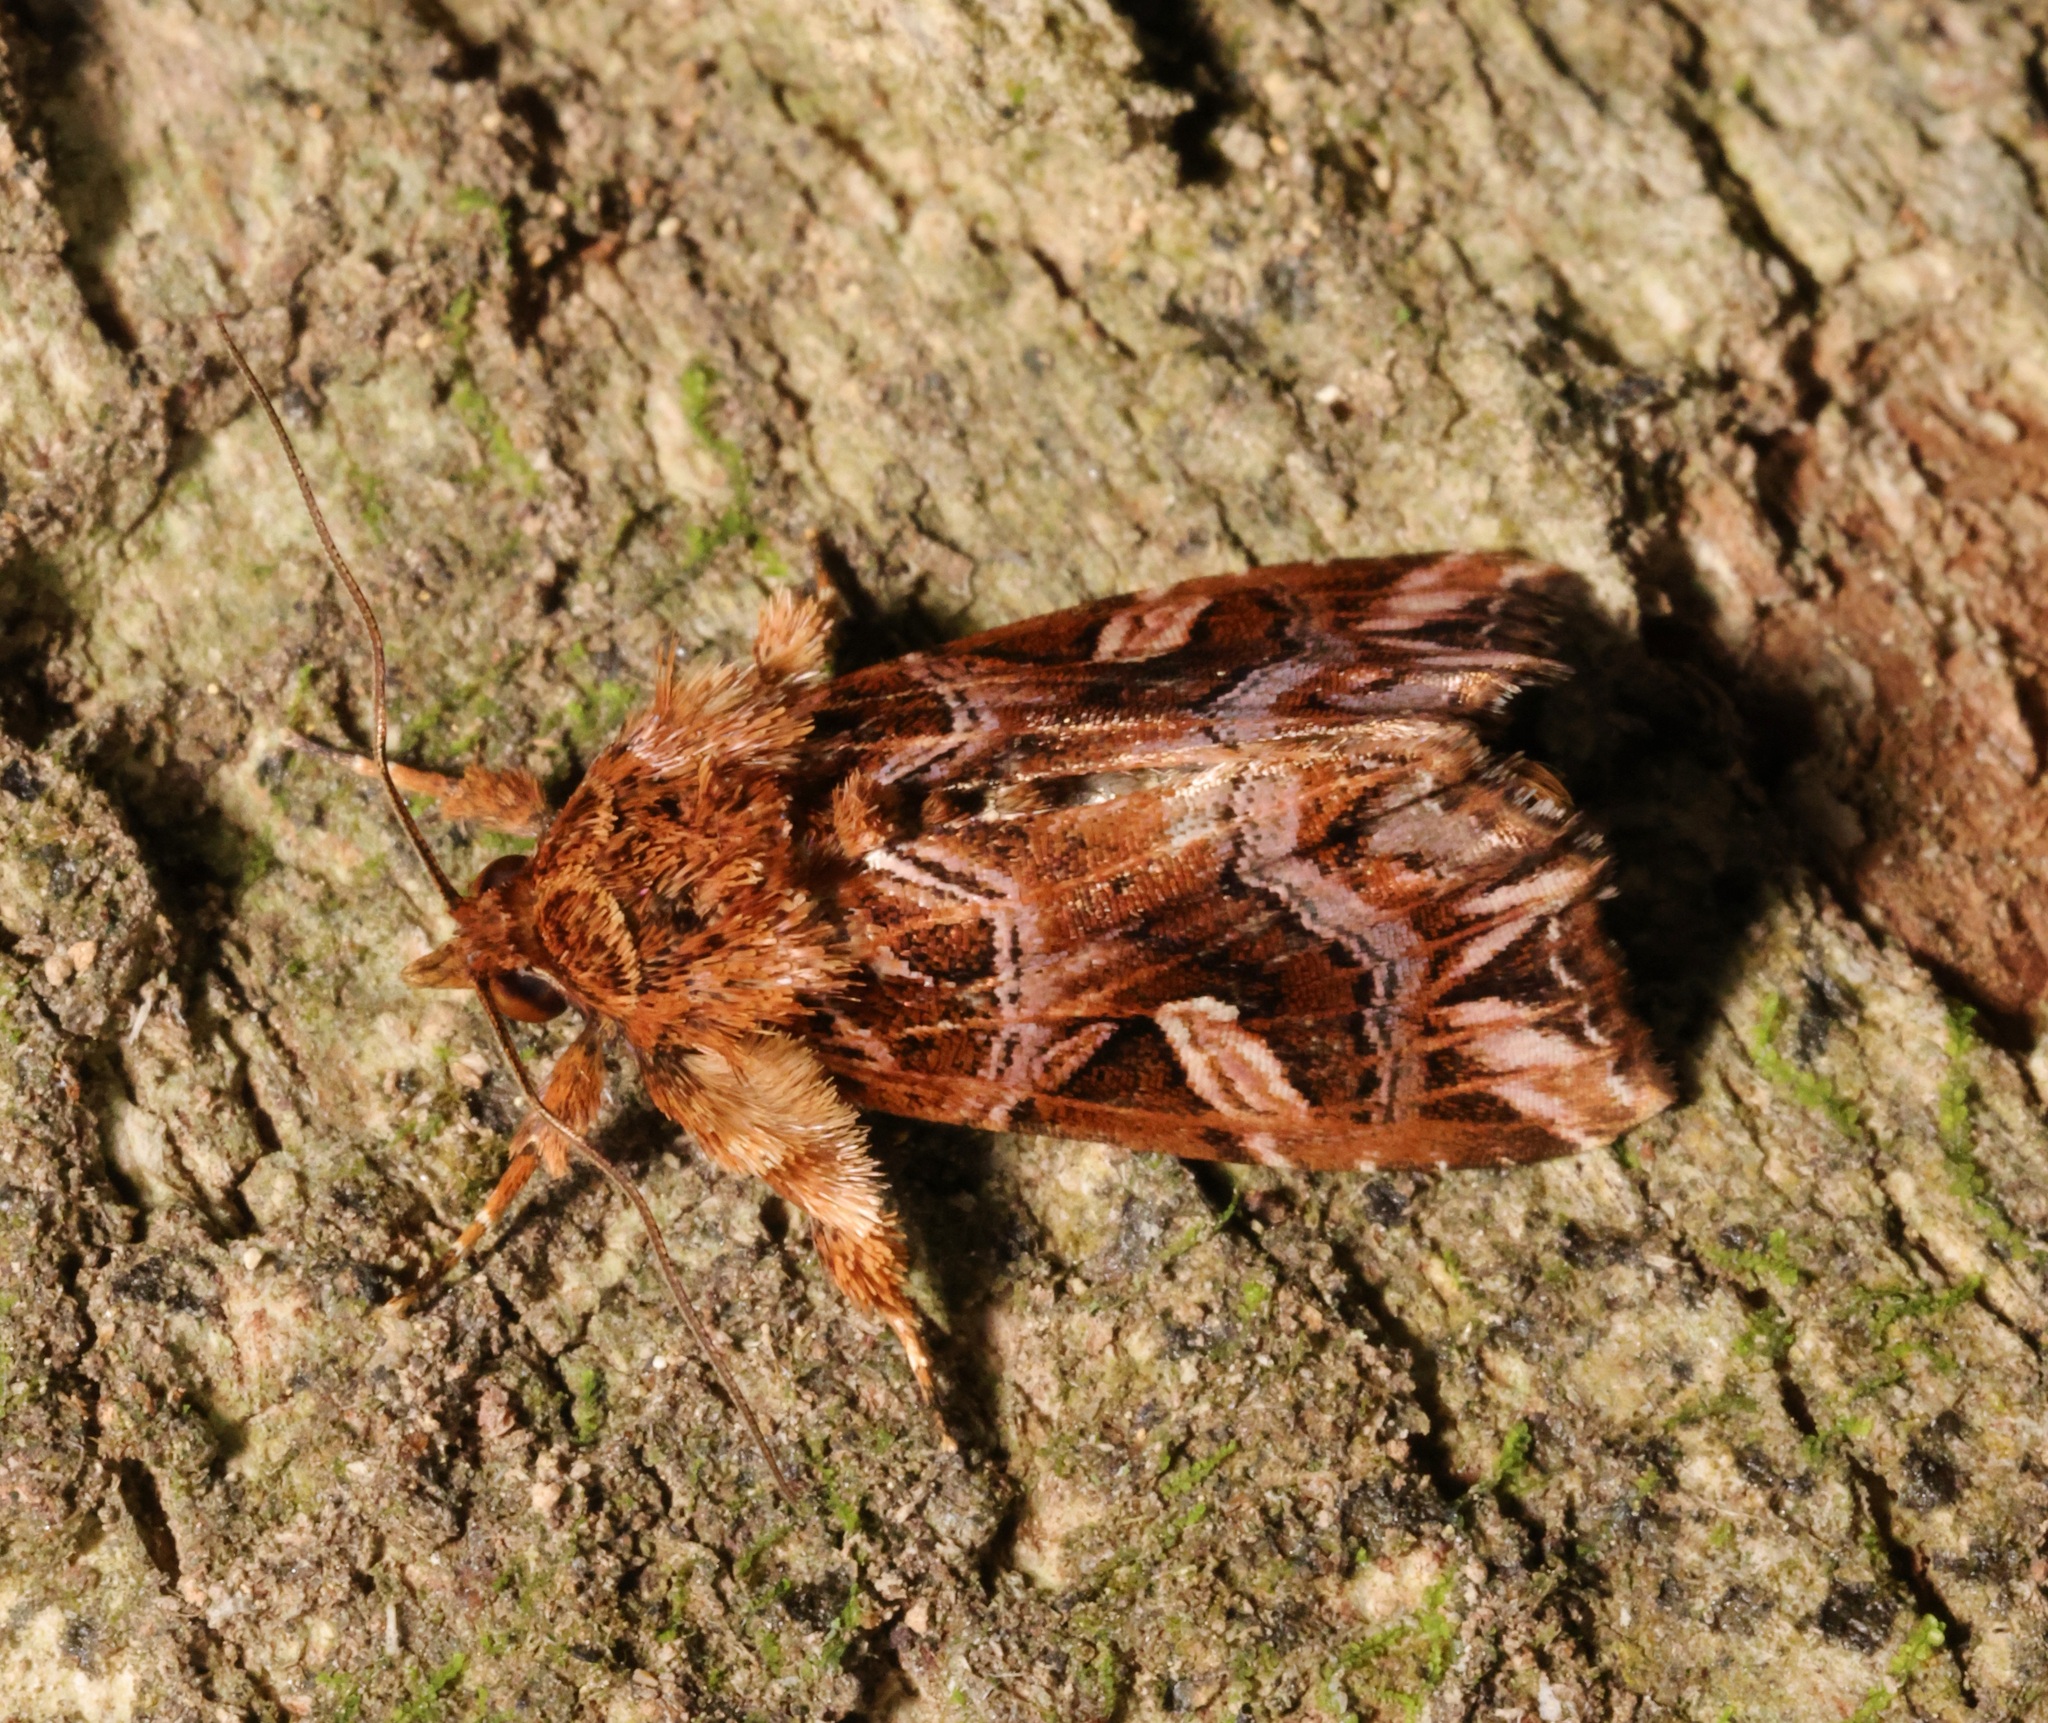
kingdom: Animalia
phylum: Arthropoda
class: Insecta
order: Lepidoptera
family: Noctuidae
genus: Callopistria
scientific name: Callopistria exotica
